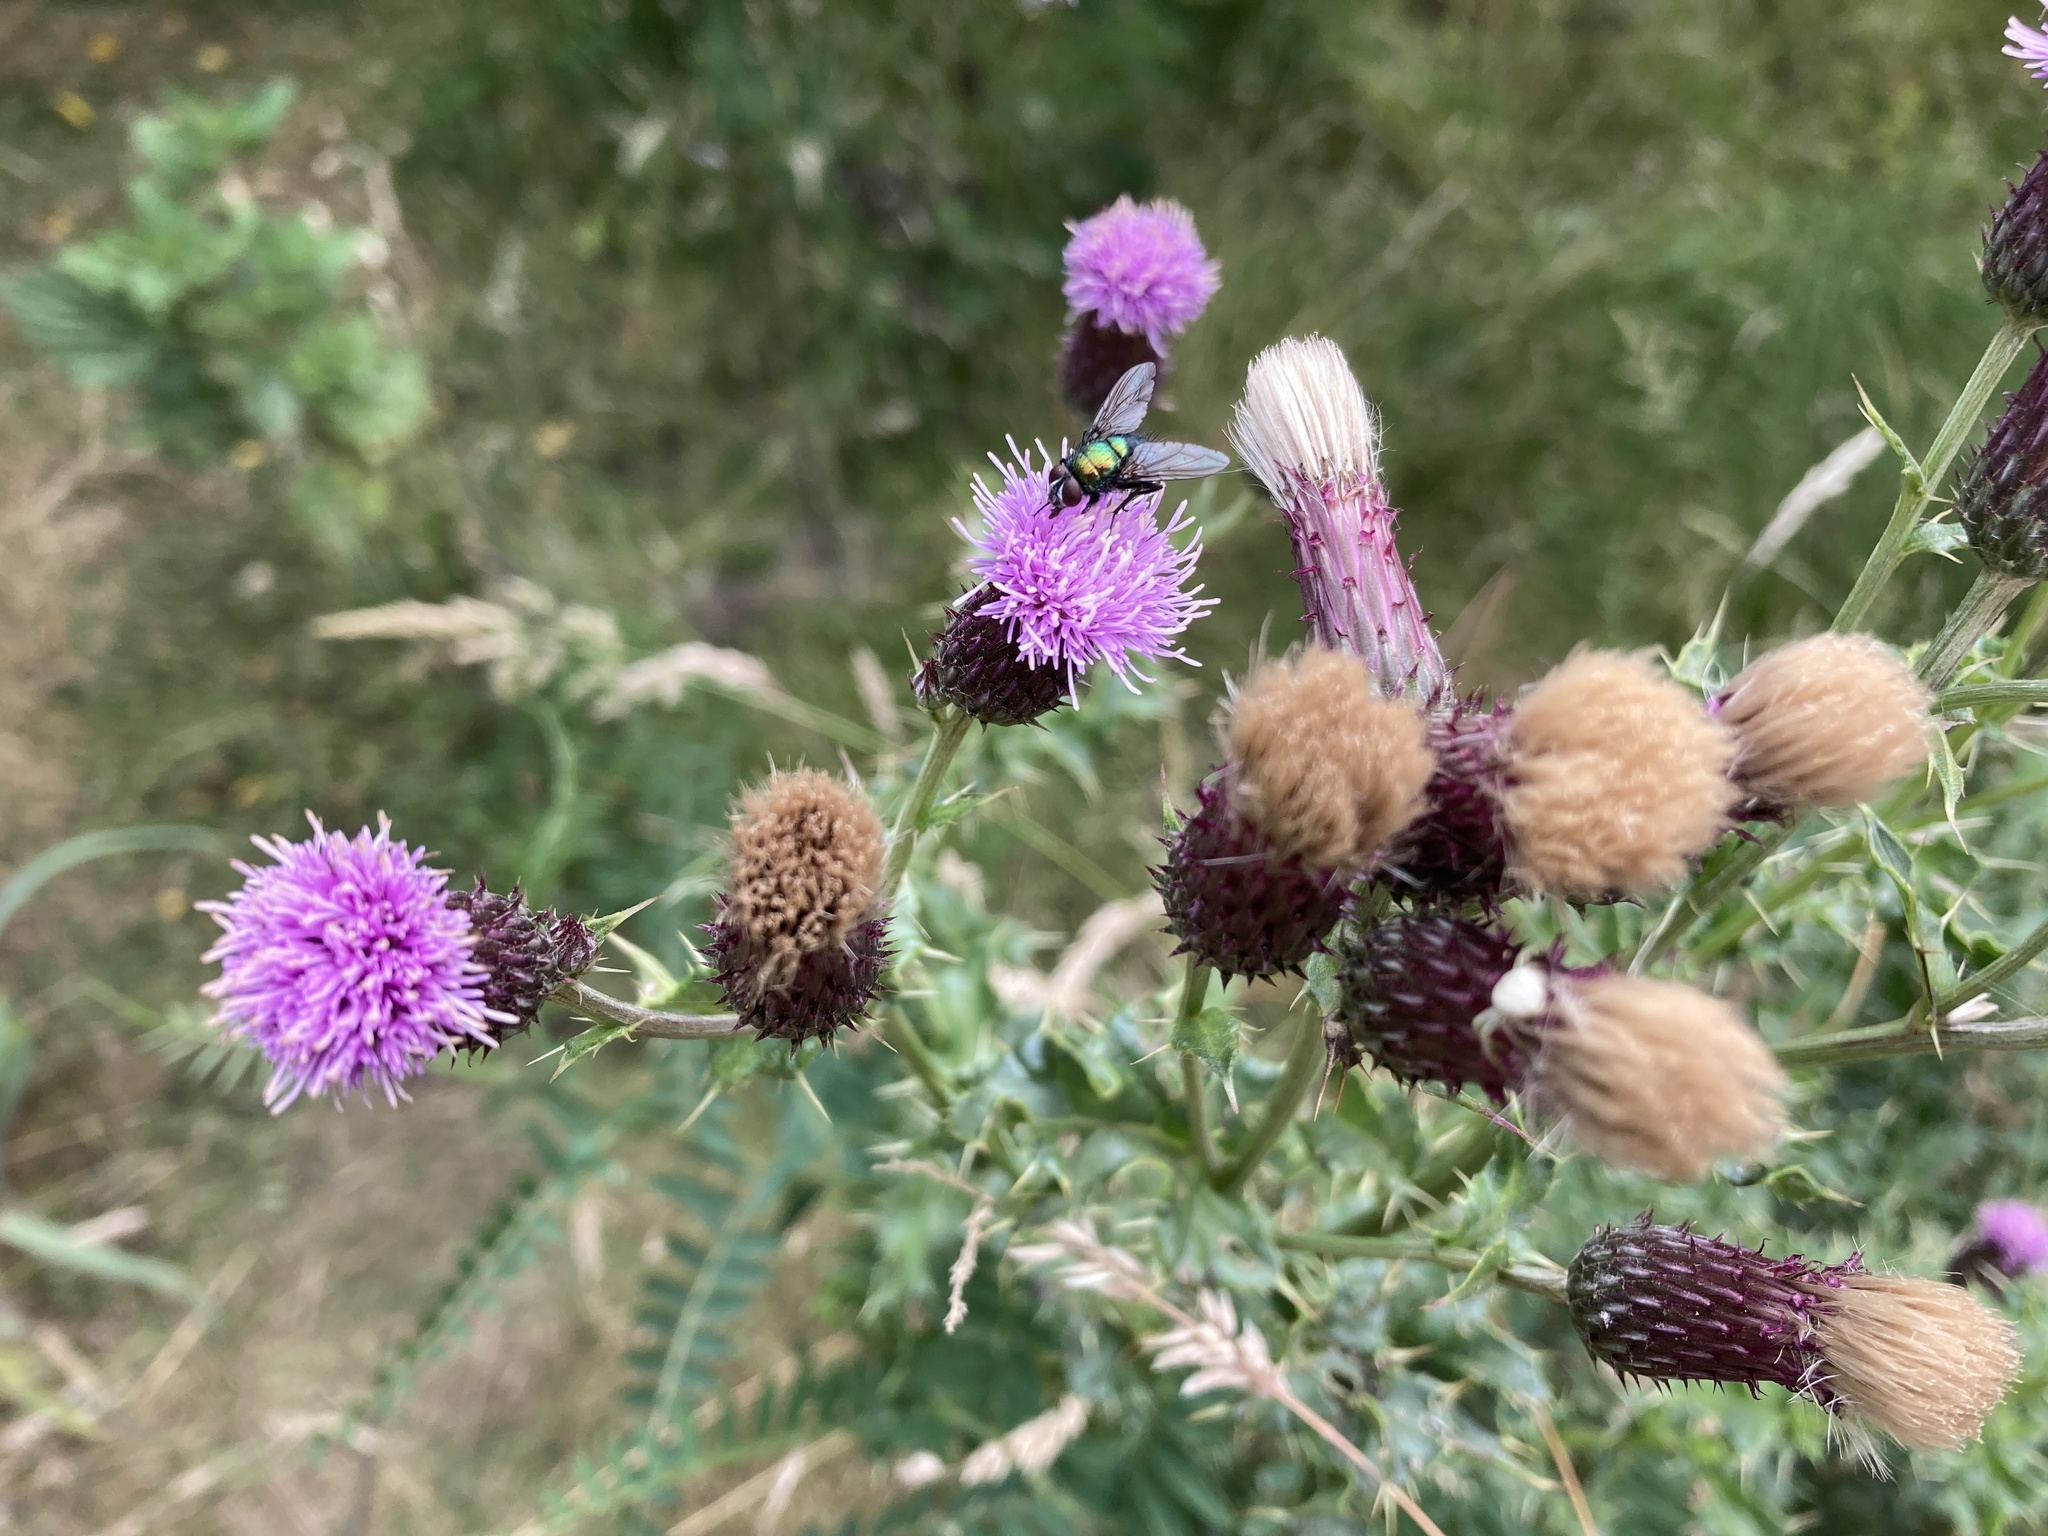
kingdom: Plantae
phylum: Tracheophyta
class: Magnoliopsida
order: Asterales
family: Asteraceae
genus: Cirsium
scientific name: Cirsium arvense
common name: Creeping thistle
